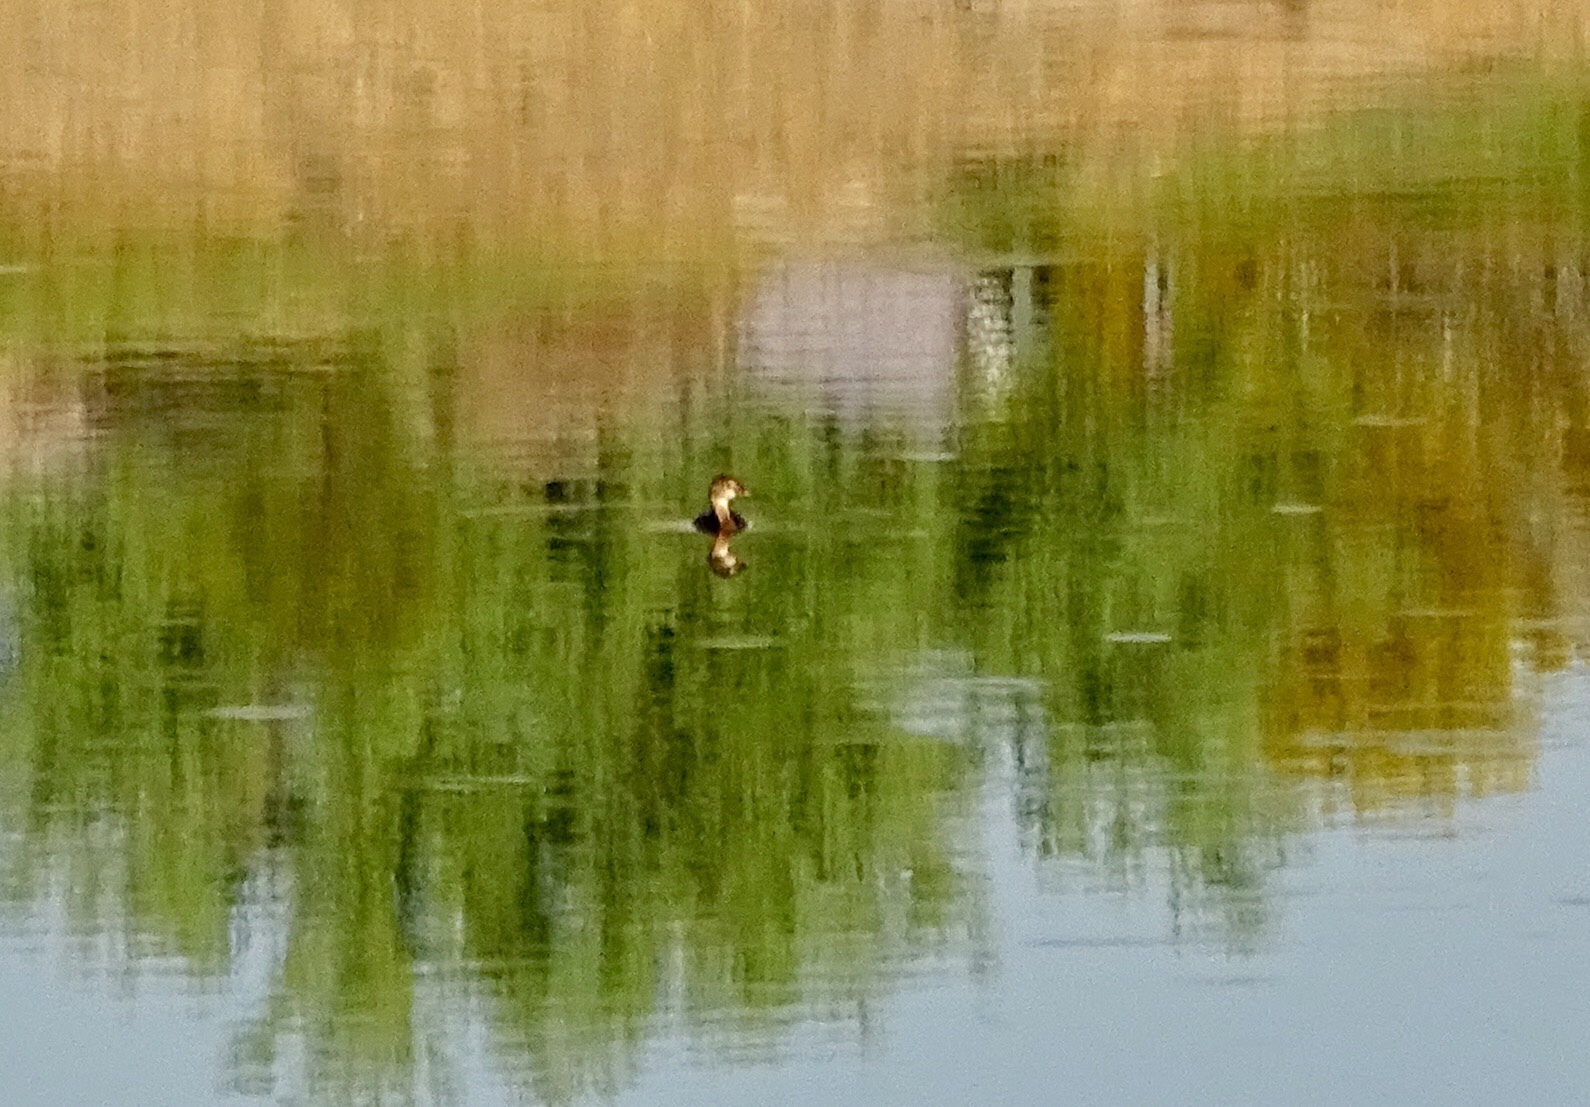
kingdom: Animalia
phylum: Chordata
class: Aves
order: Podicipediformes
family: Podicipedidae
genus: Podilymbus
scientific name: Podilymbus podiceps
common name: Pied-billed grebe
